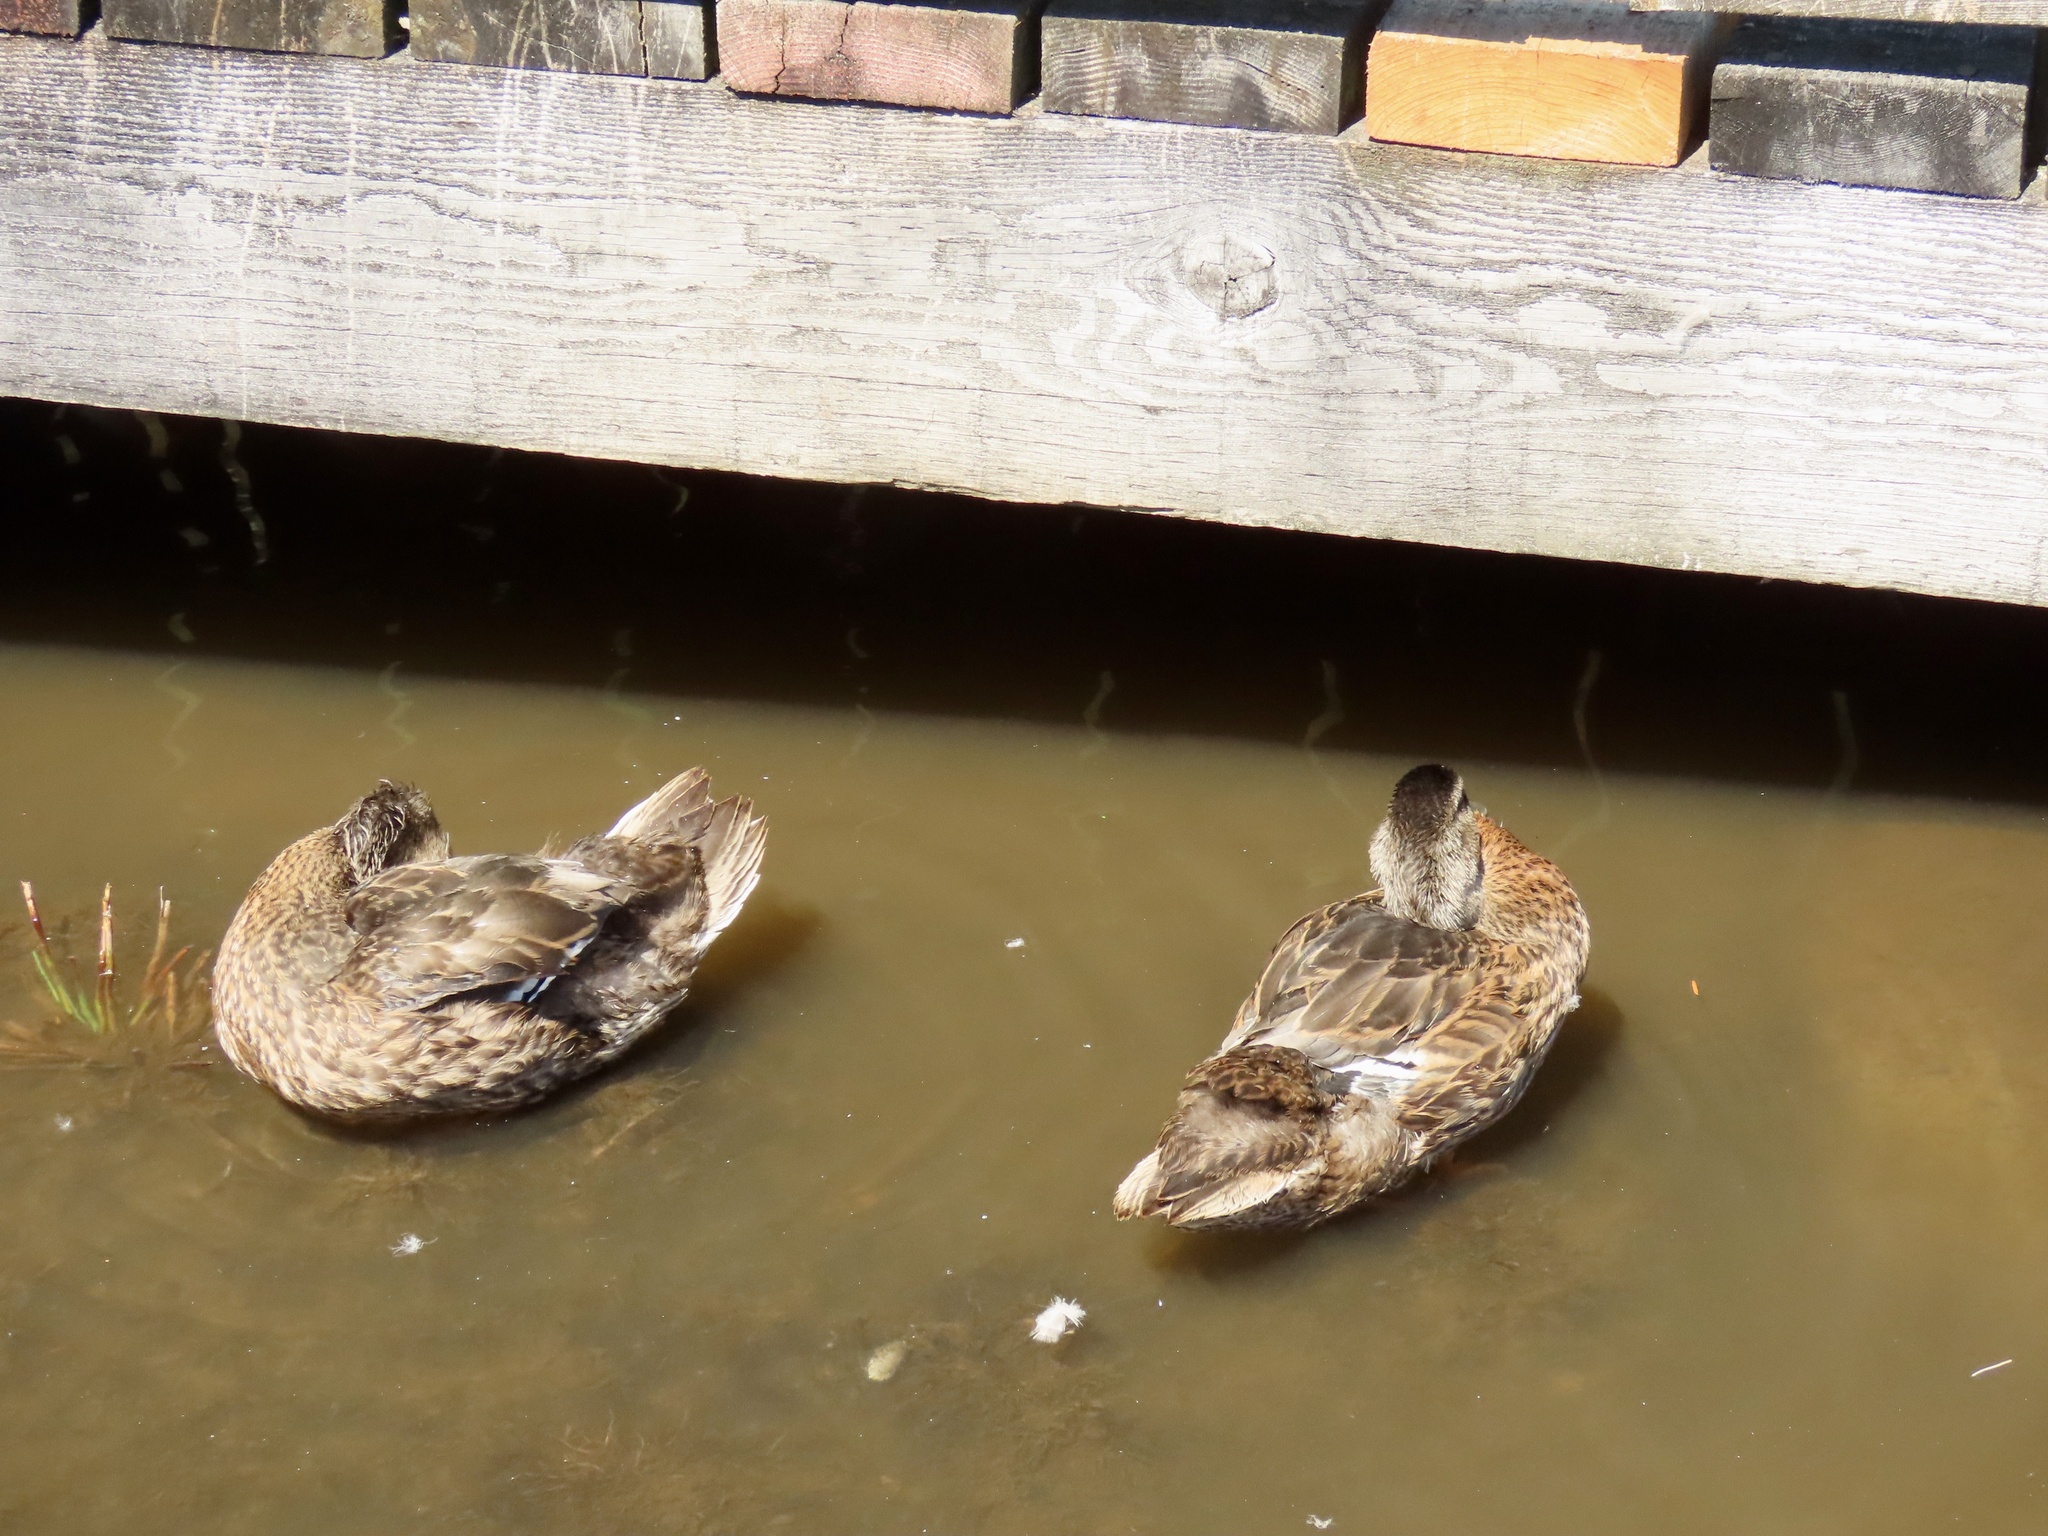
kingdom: Animalia
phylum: Chordata
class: Aves
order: Anseriformes
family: Anatidae
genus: Anas
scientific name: Anas platyrhynchos
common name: Mallard
